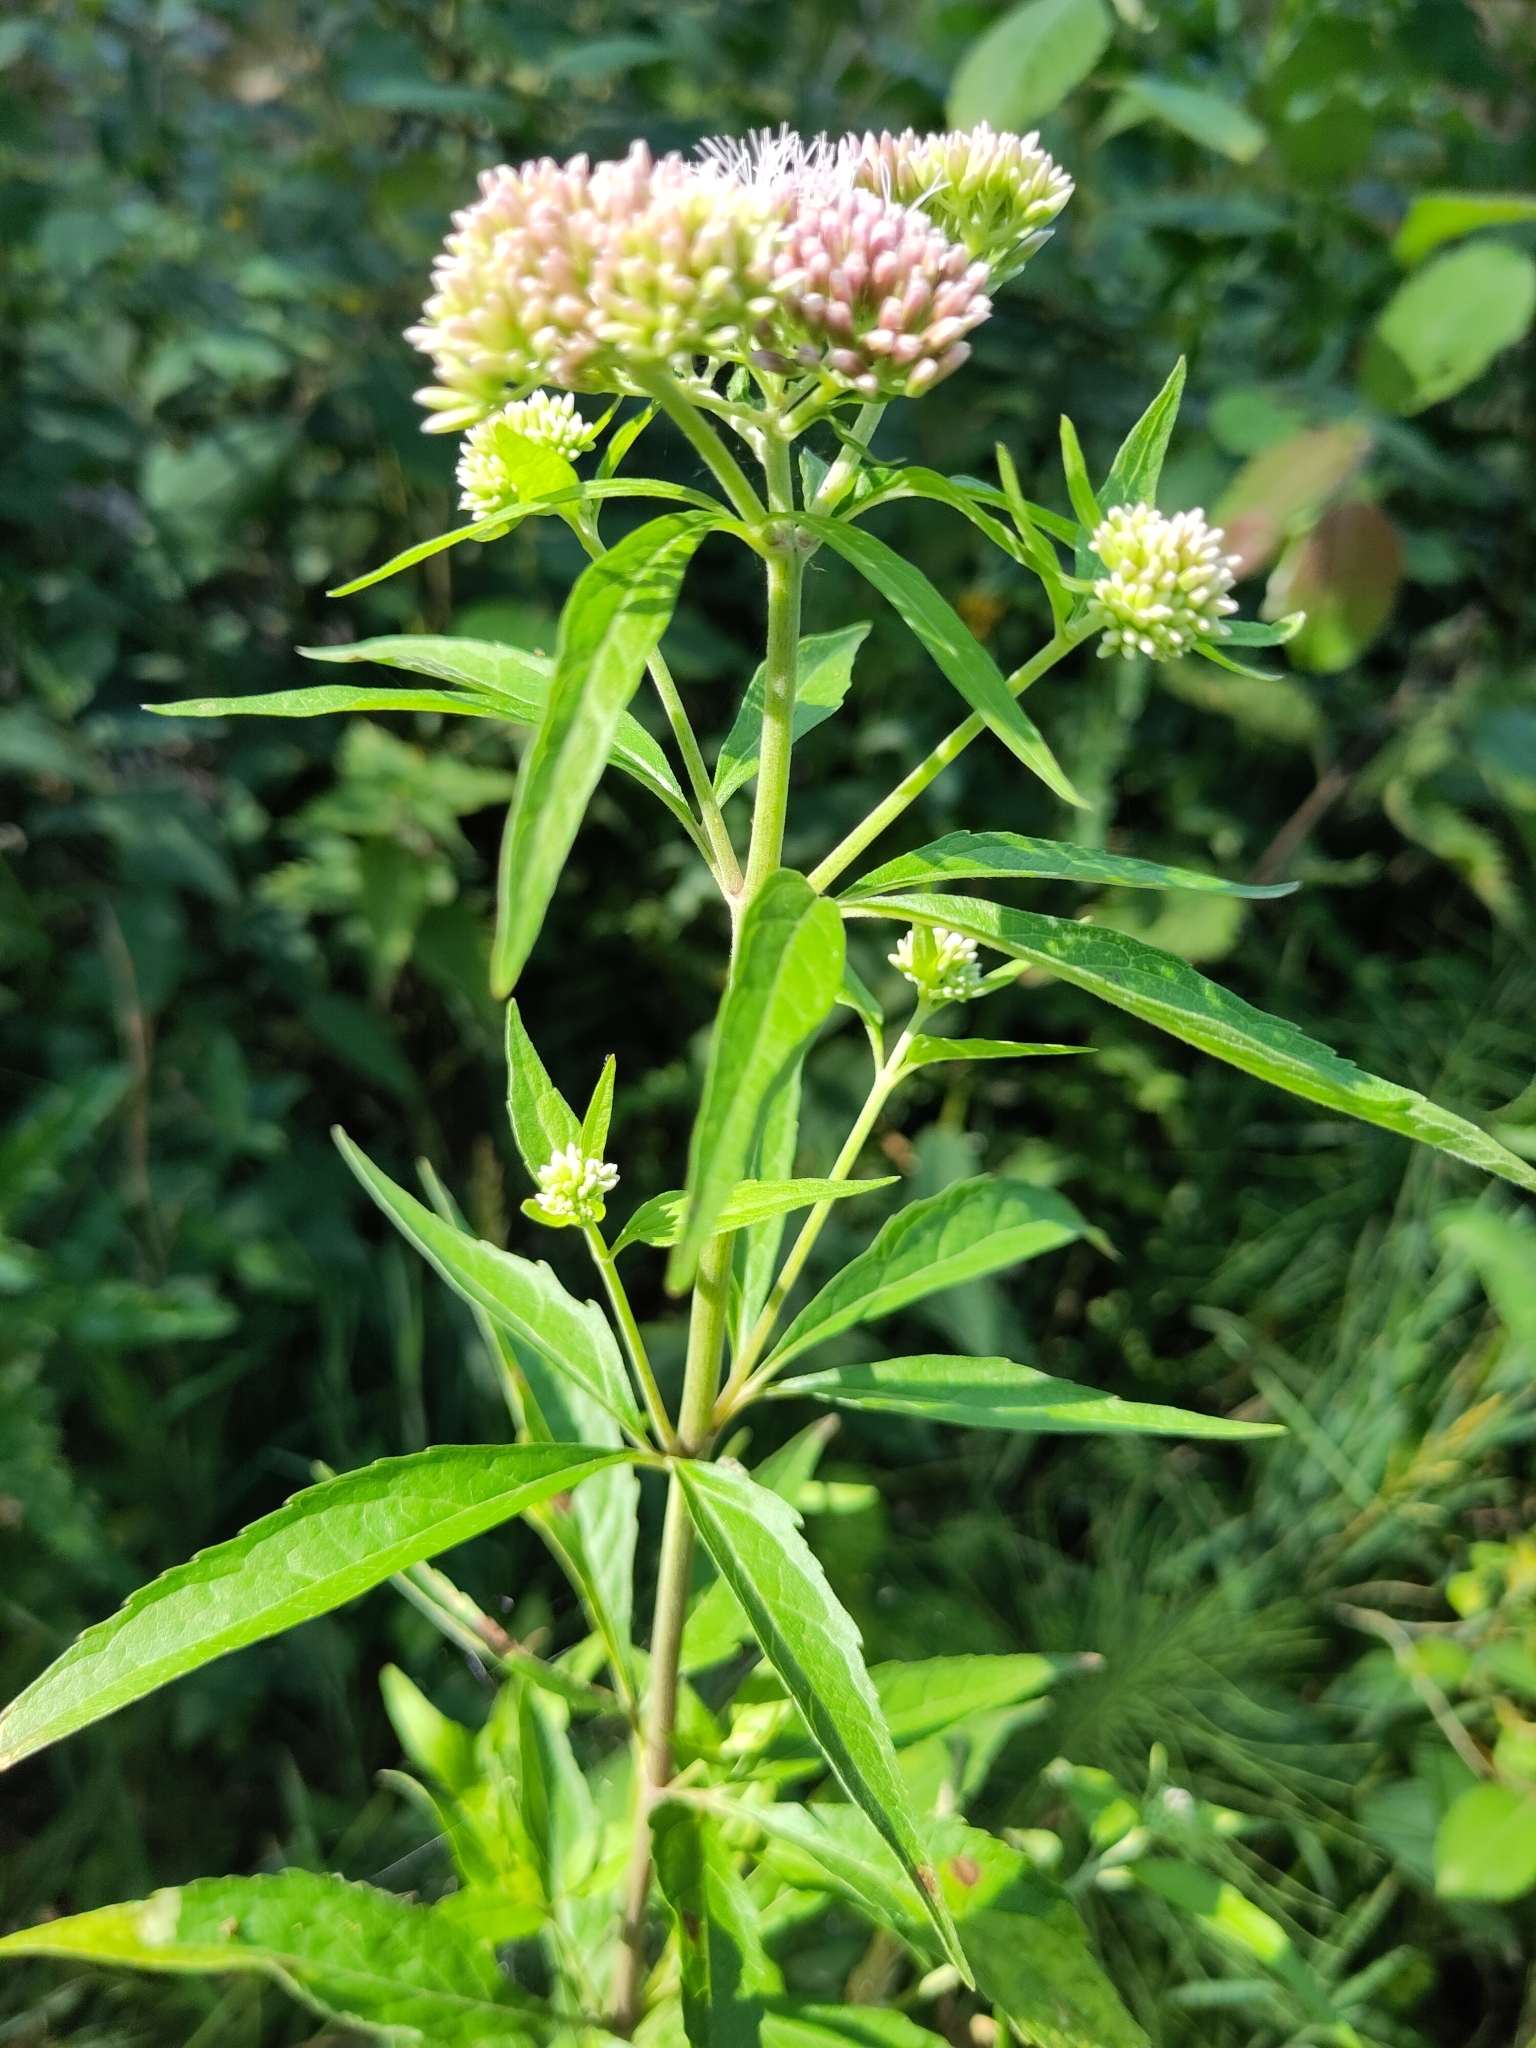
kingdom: Plantae
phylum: Tracheophyta
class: Magnoliopsida
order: Asterales
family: Asteraceae
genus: Eupatorium
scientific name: Eupatorium cannabinum
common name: Hemp-agrimony
